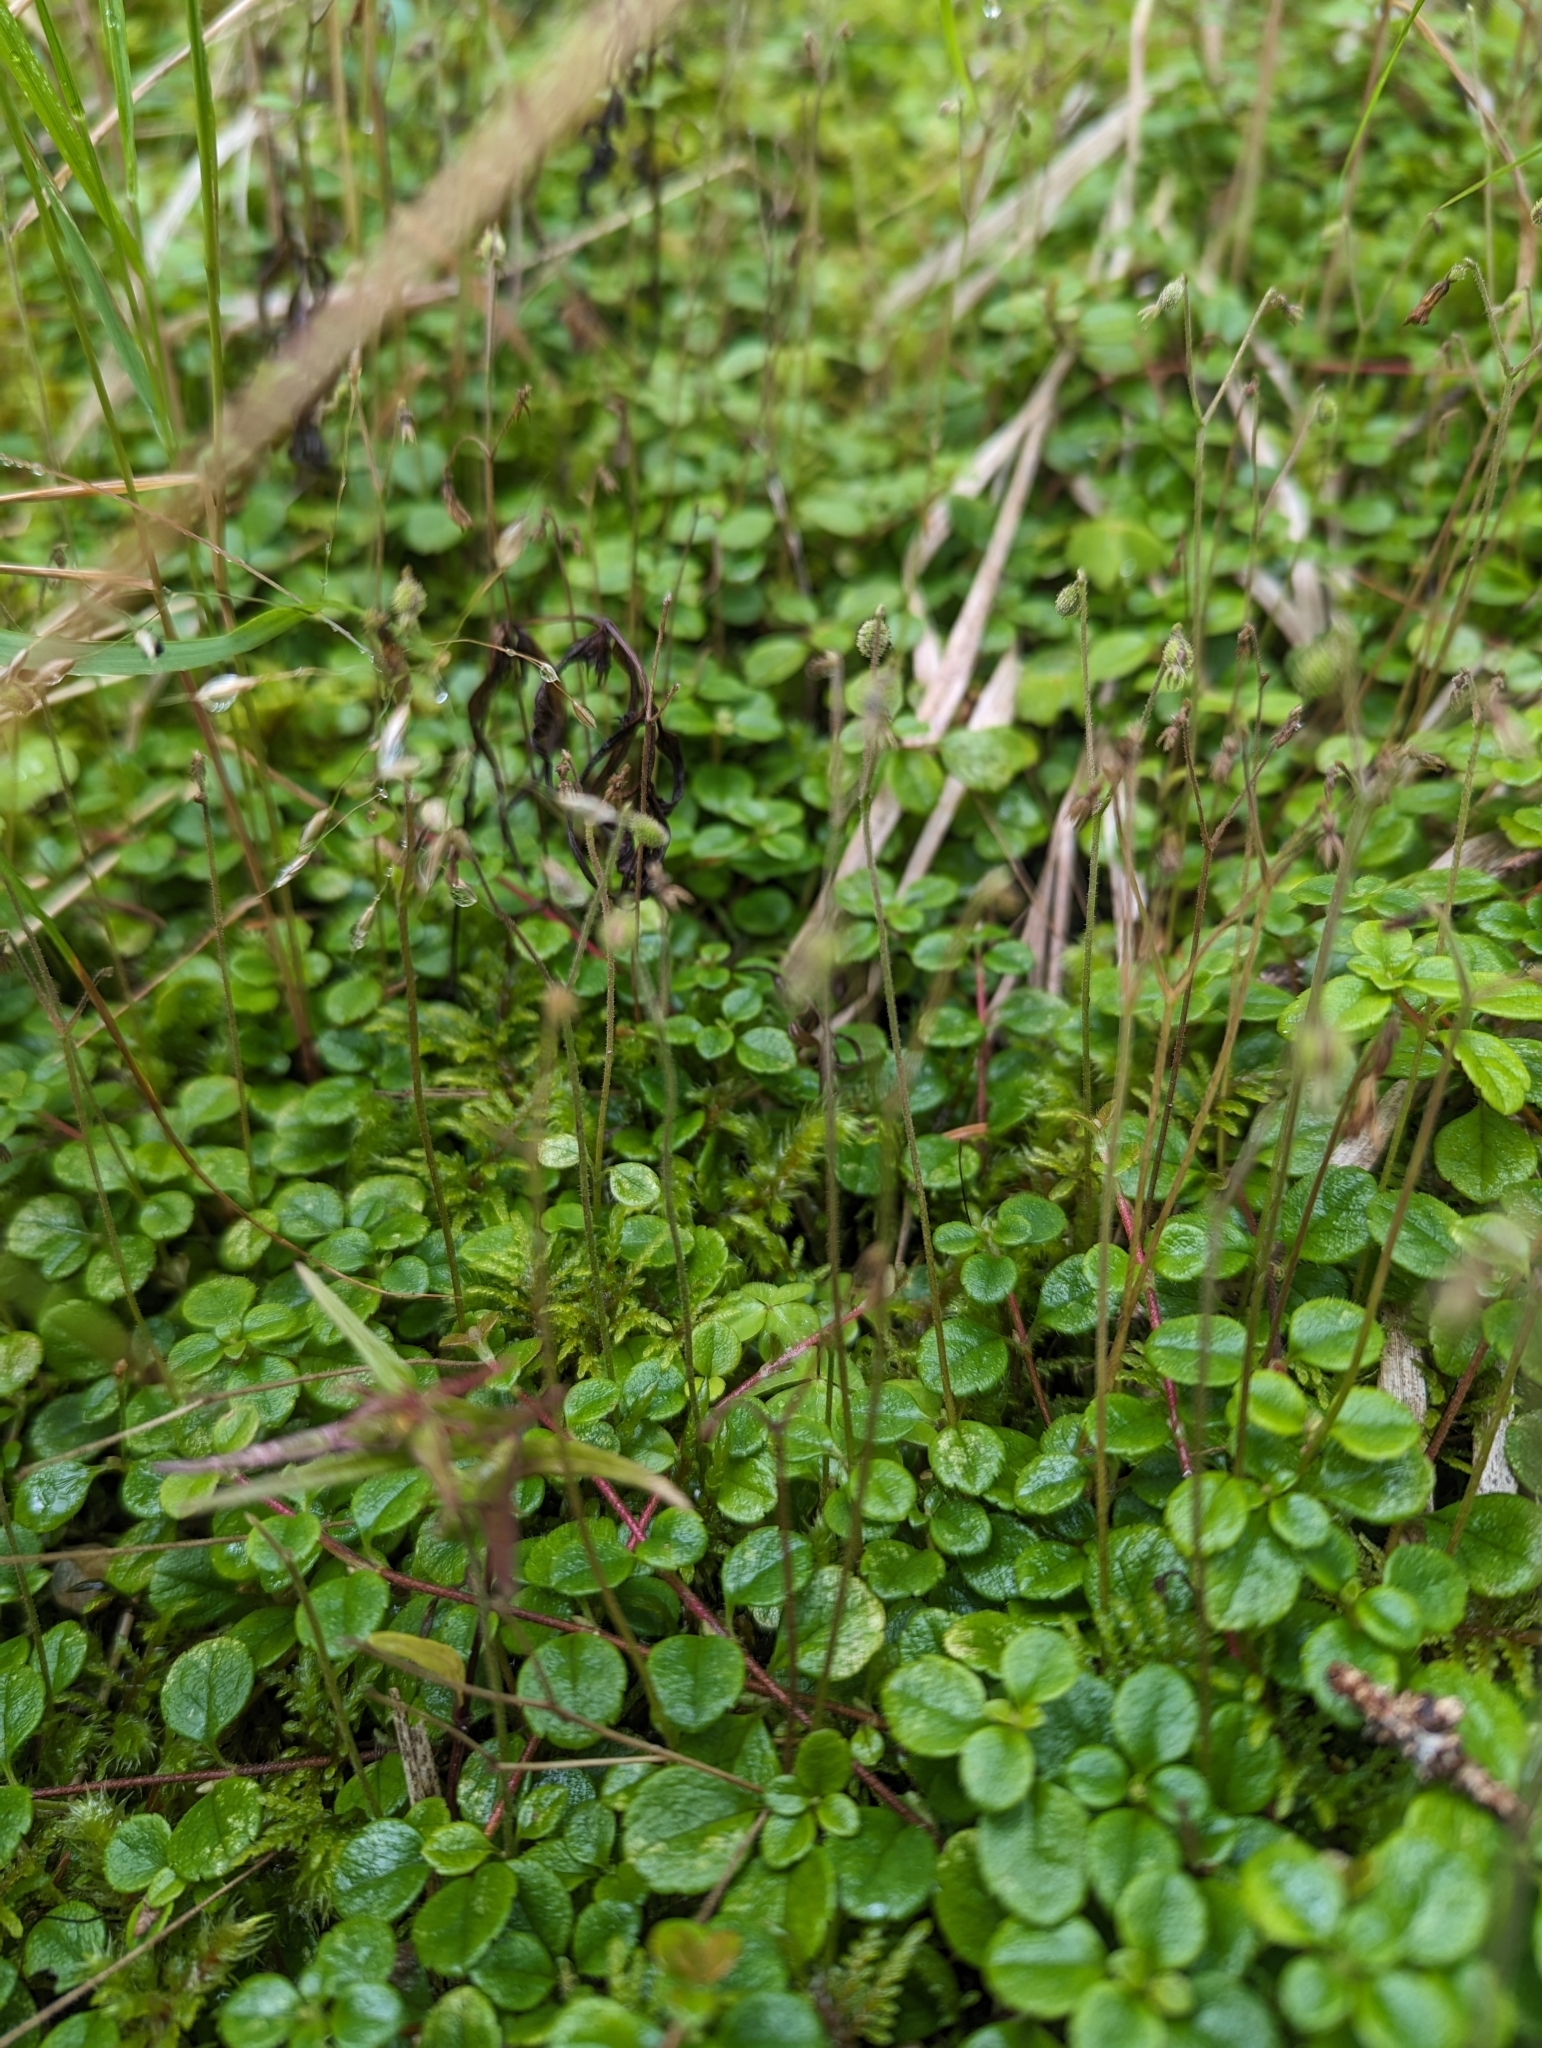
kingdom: Plantae
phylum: Tracheophyta
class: Magnoliopsida
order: Dipsacales
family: Caprifoliaceae
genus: Linnaea
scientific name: Linnaea borealis
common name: Twinflower
